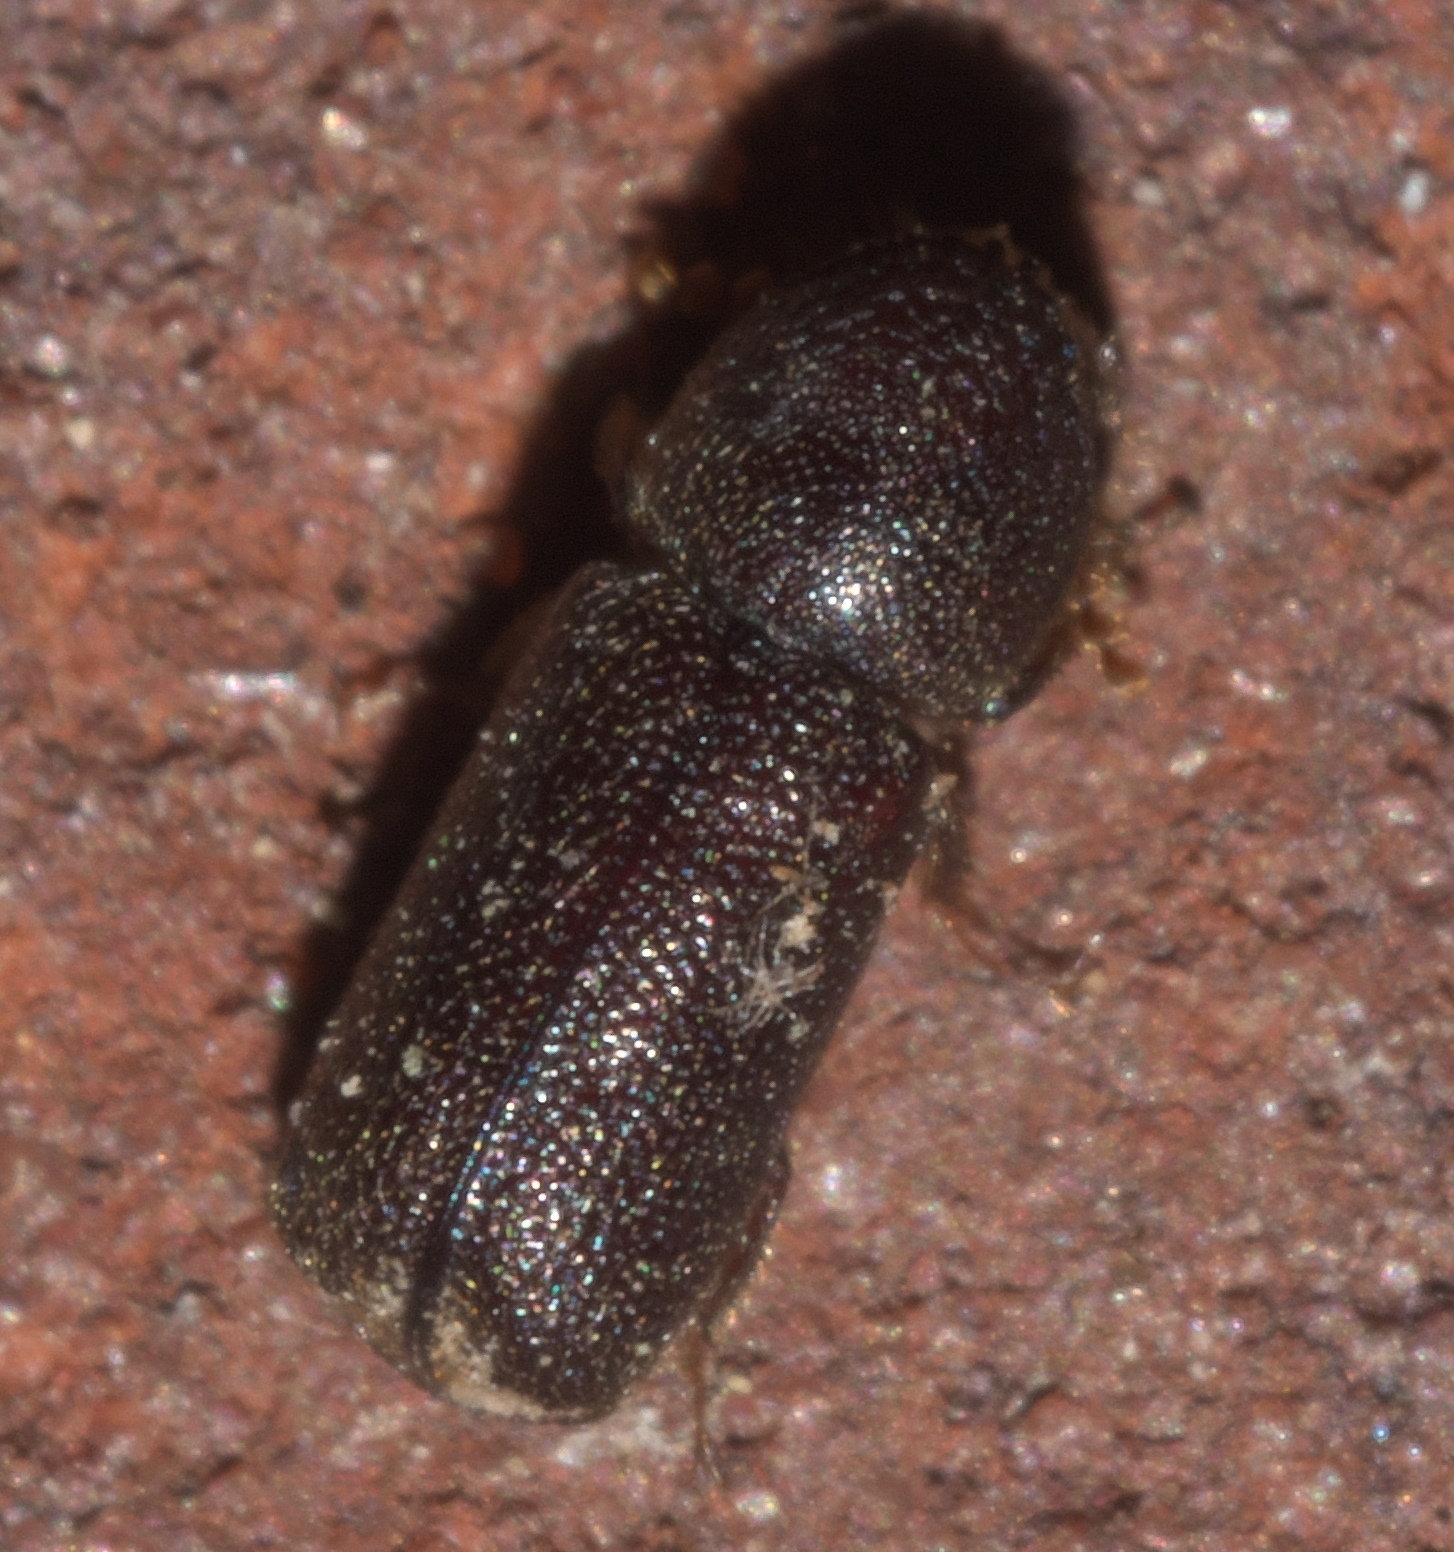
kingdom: Animalia
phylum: Arthropoda
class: Insecta
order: Coleoptera
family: Bostrichidae
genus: Prostephanus
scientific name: Prostephanus punctatus
